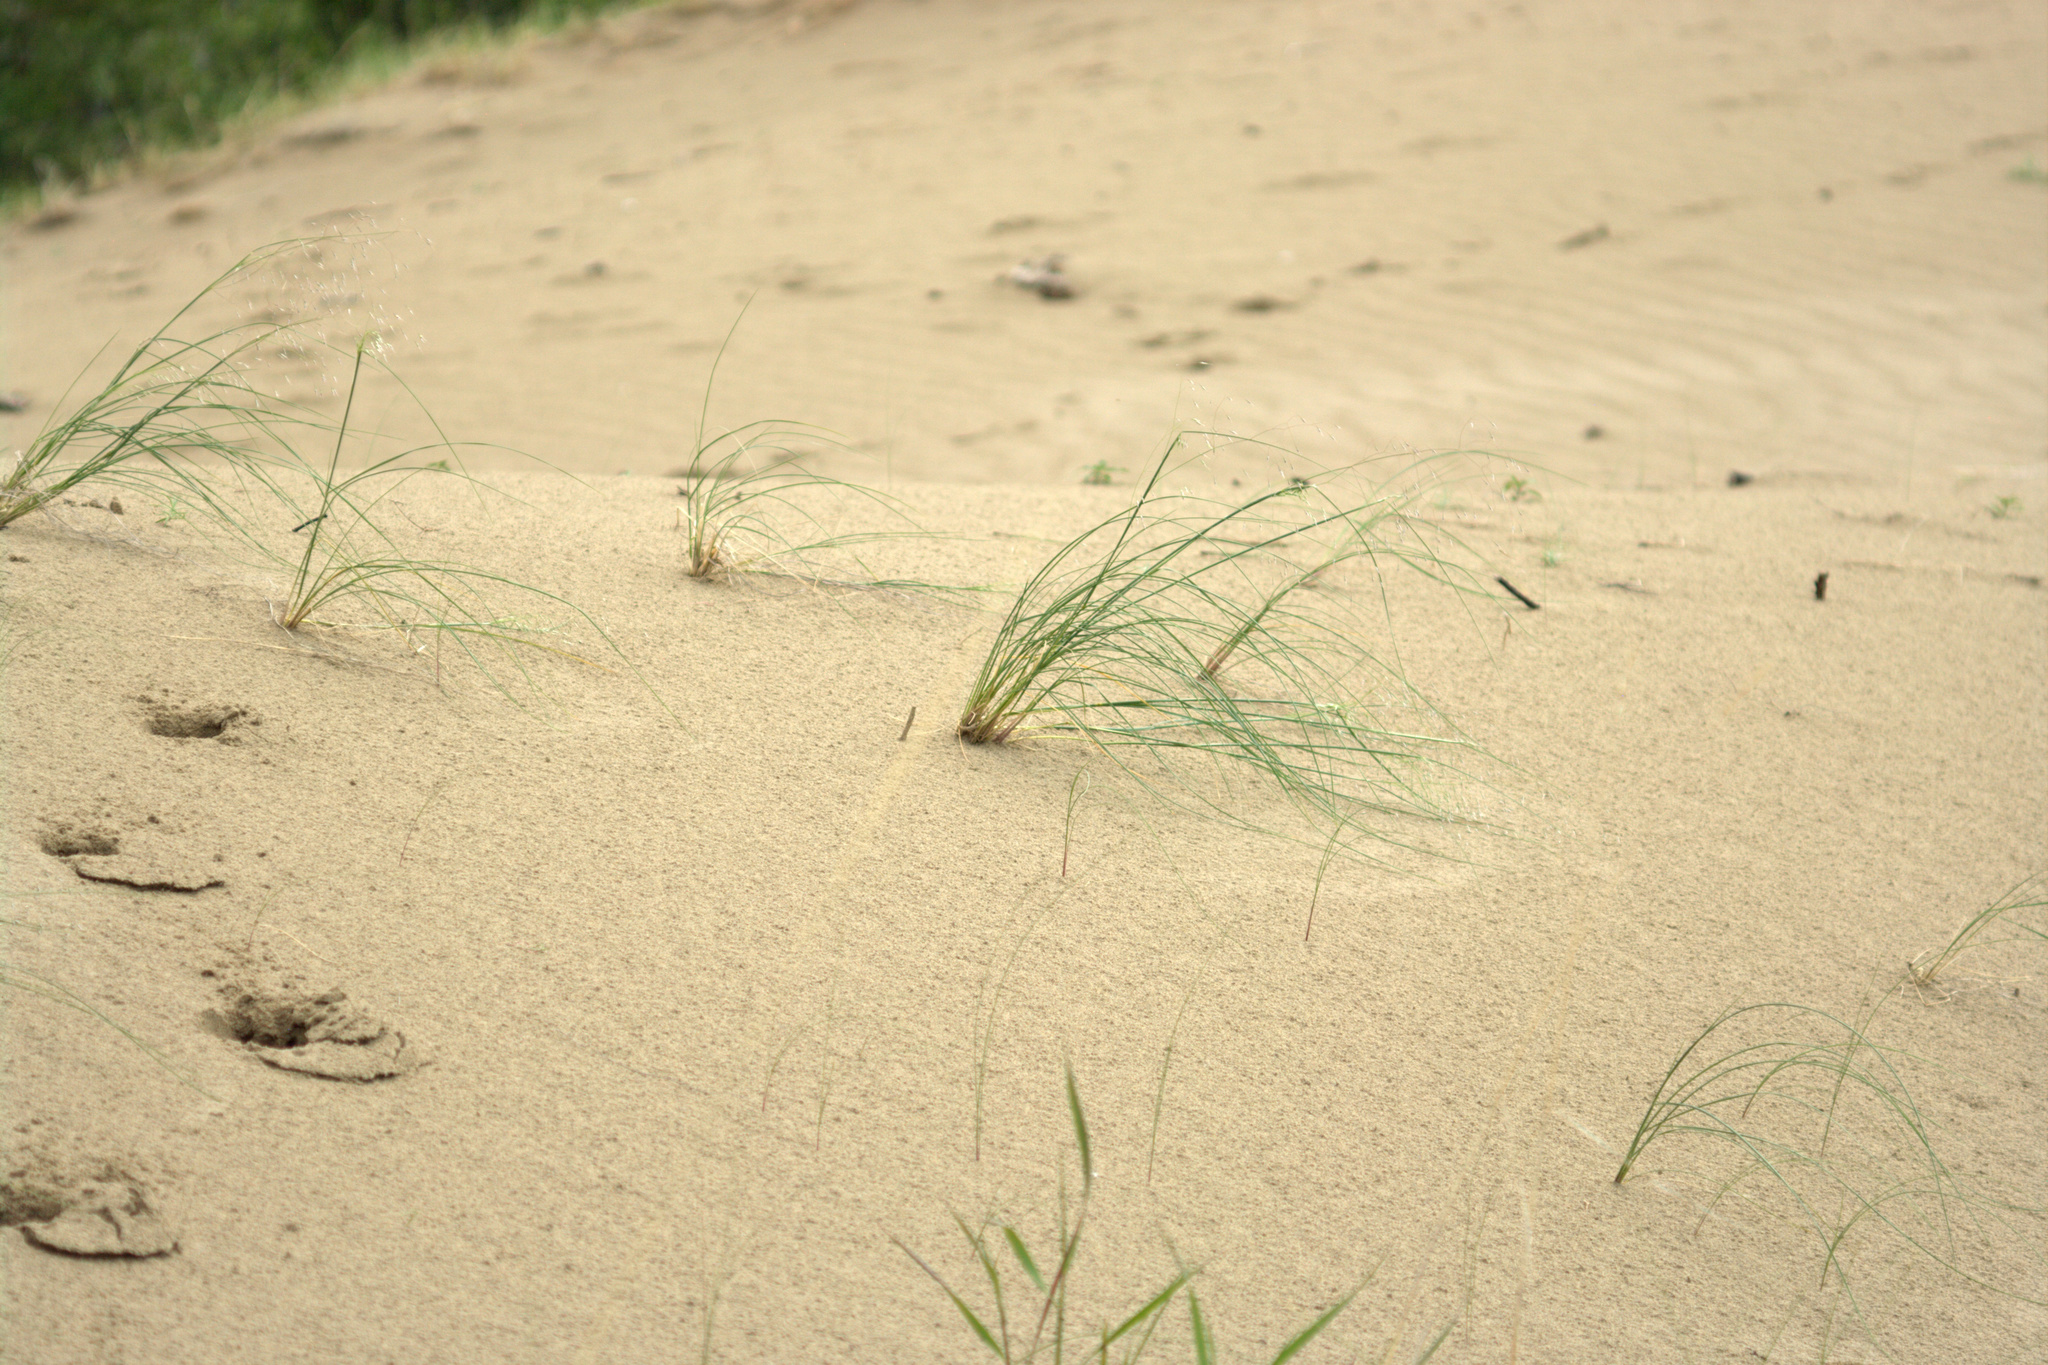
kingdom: Plantae
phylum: Tracheophyta
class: Liliopsida
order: Poales
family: Poaceae
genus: Eriocoma
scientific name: Eriocoma hymenoides
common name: Indian mountain ricegrass
